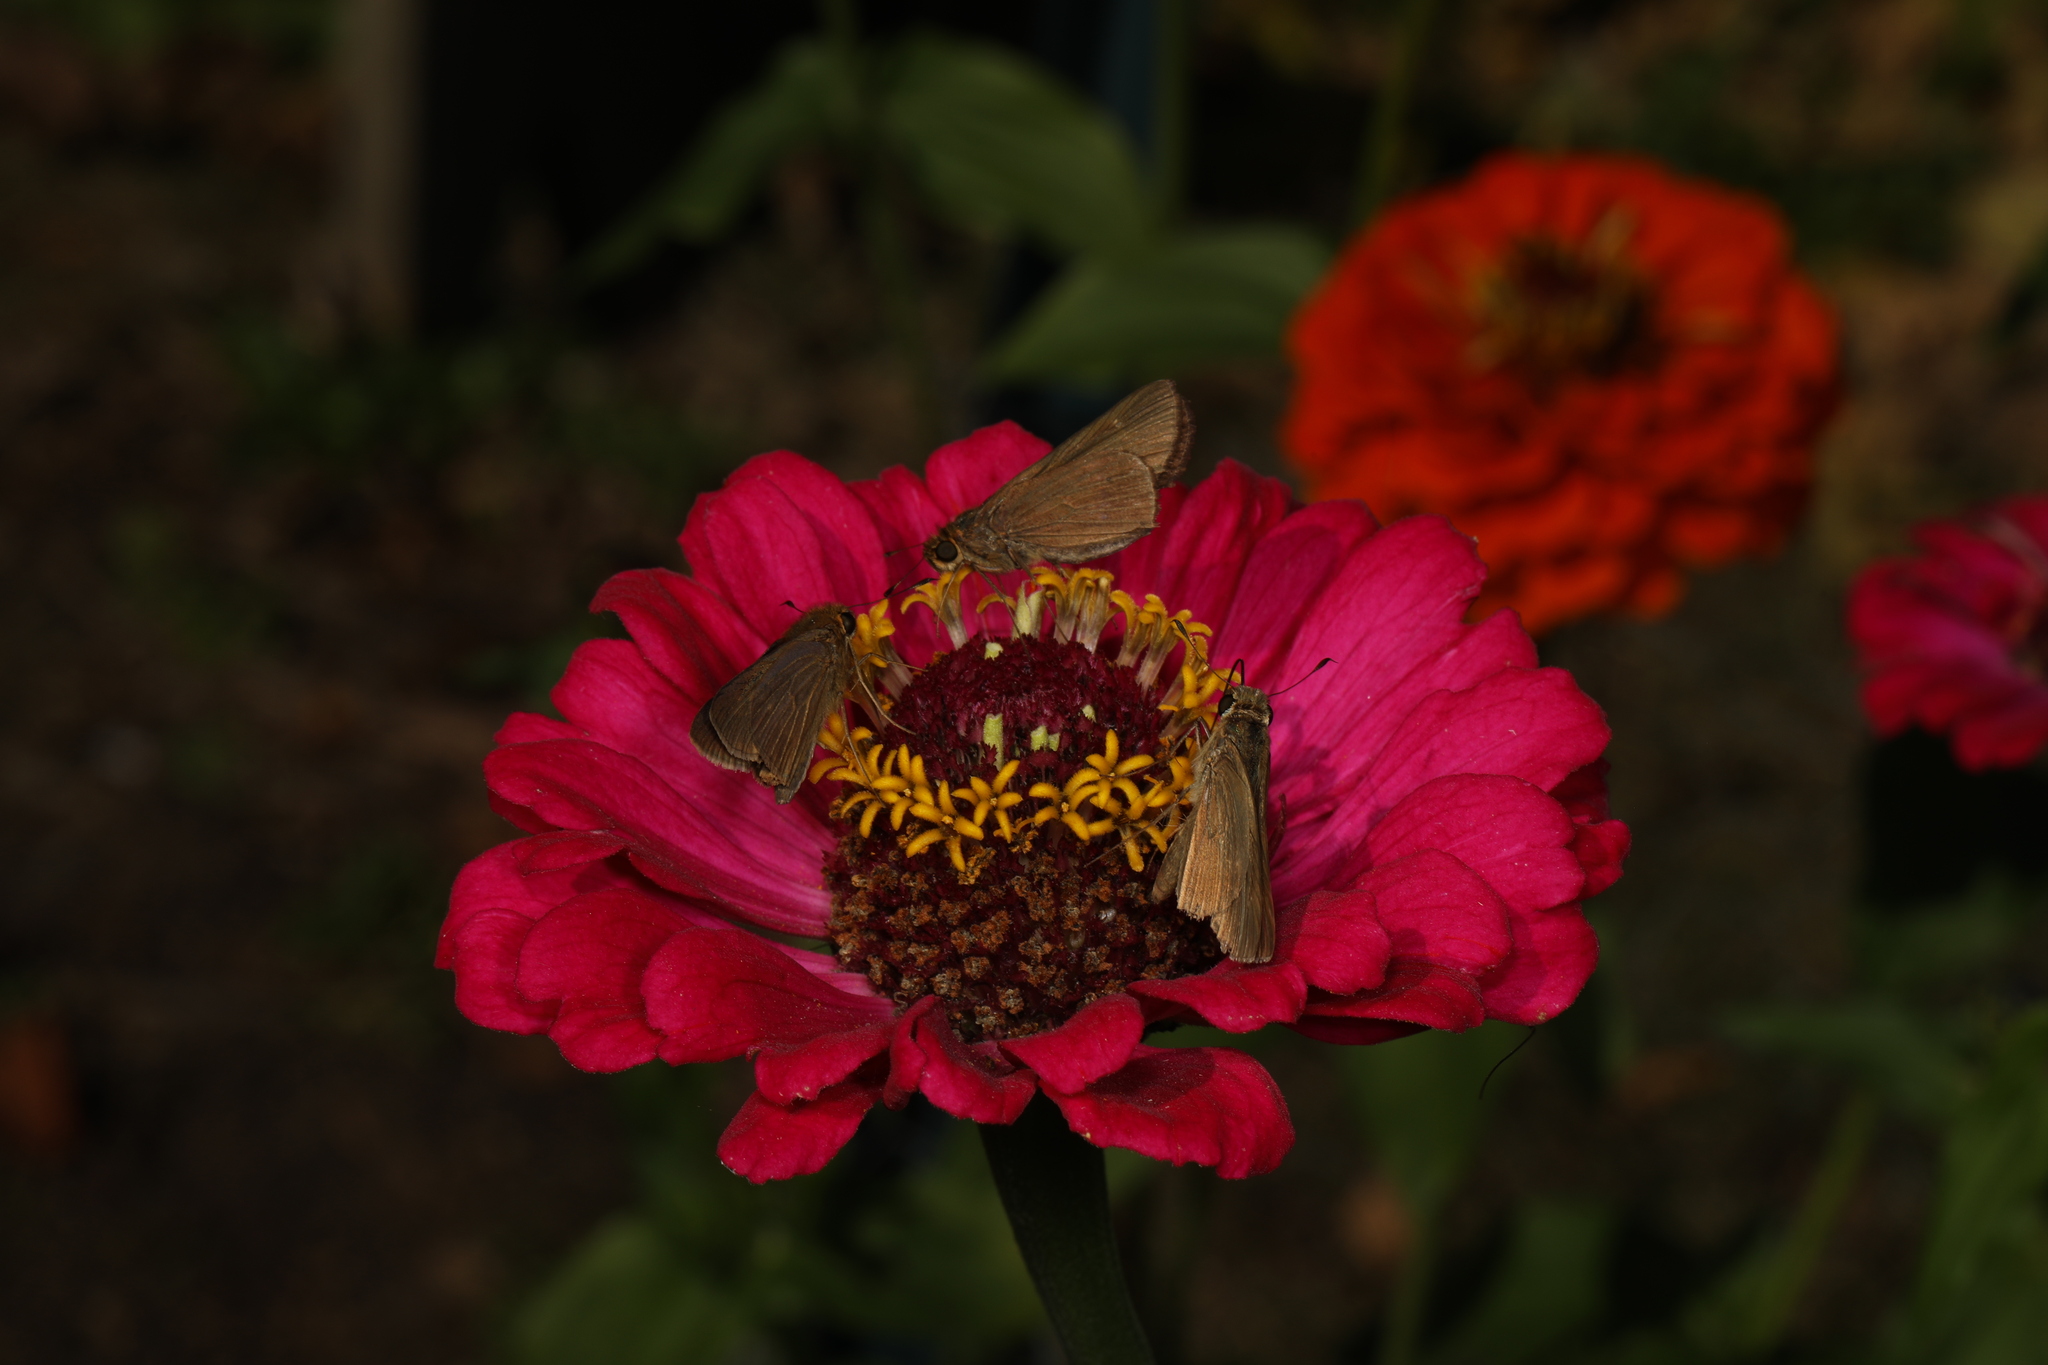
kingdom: Animalia
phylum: Arthropoda
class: Insecta
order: Lepidoptera
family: Hesperiidae
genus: Panoquina
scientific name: Panoquina ocola
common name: Ocola skipper
